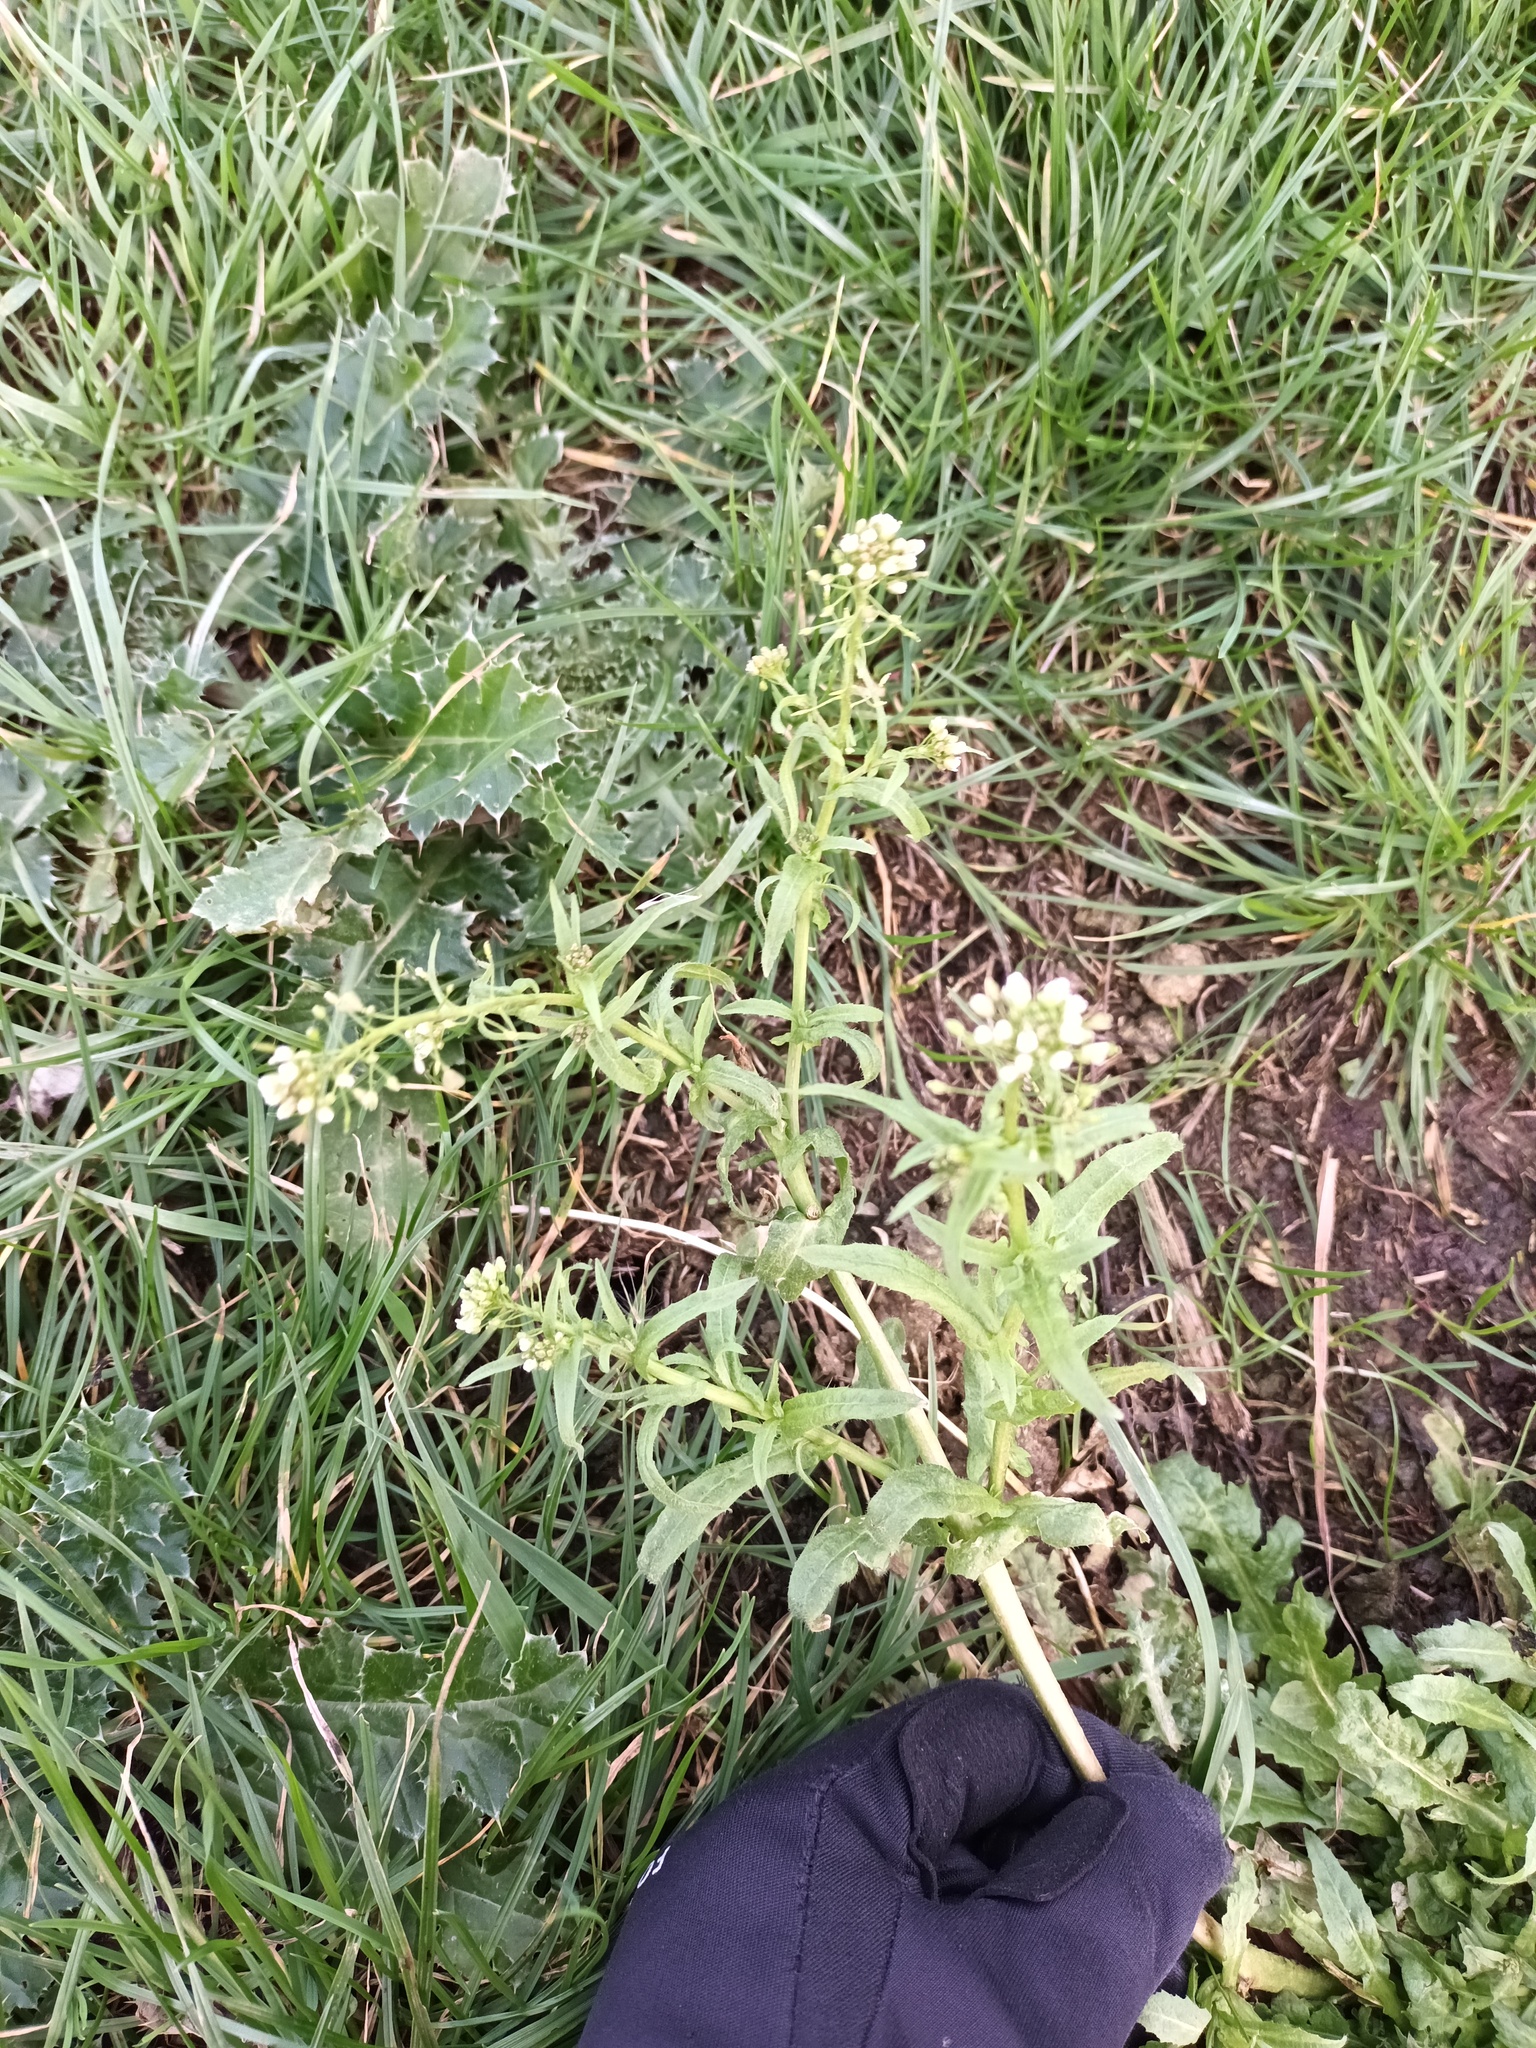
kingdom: Plantae
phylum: Tracheophyta
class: Magnoliopsida
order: Brassicales
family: Brassicaceae
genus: Capsella
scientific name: Capsella bursa-pastoris
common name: Shepherd's purse
